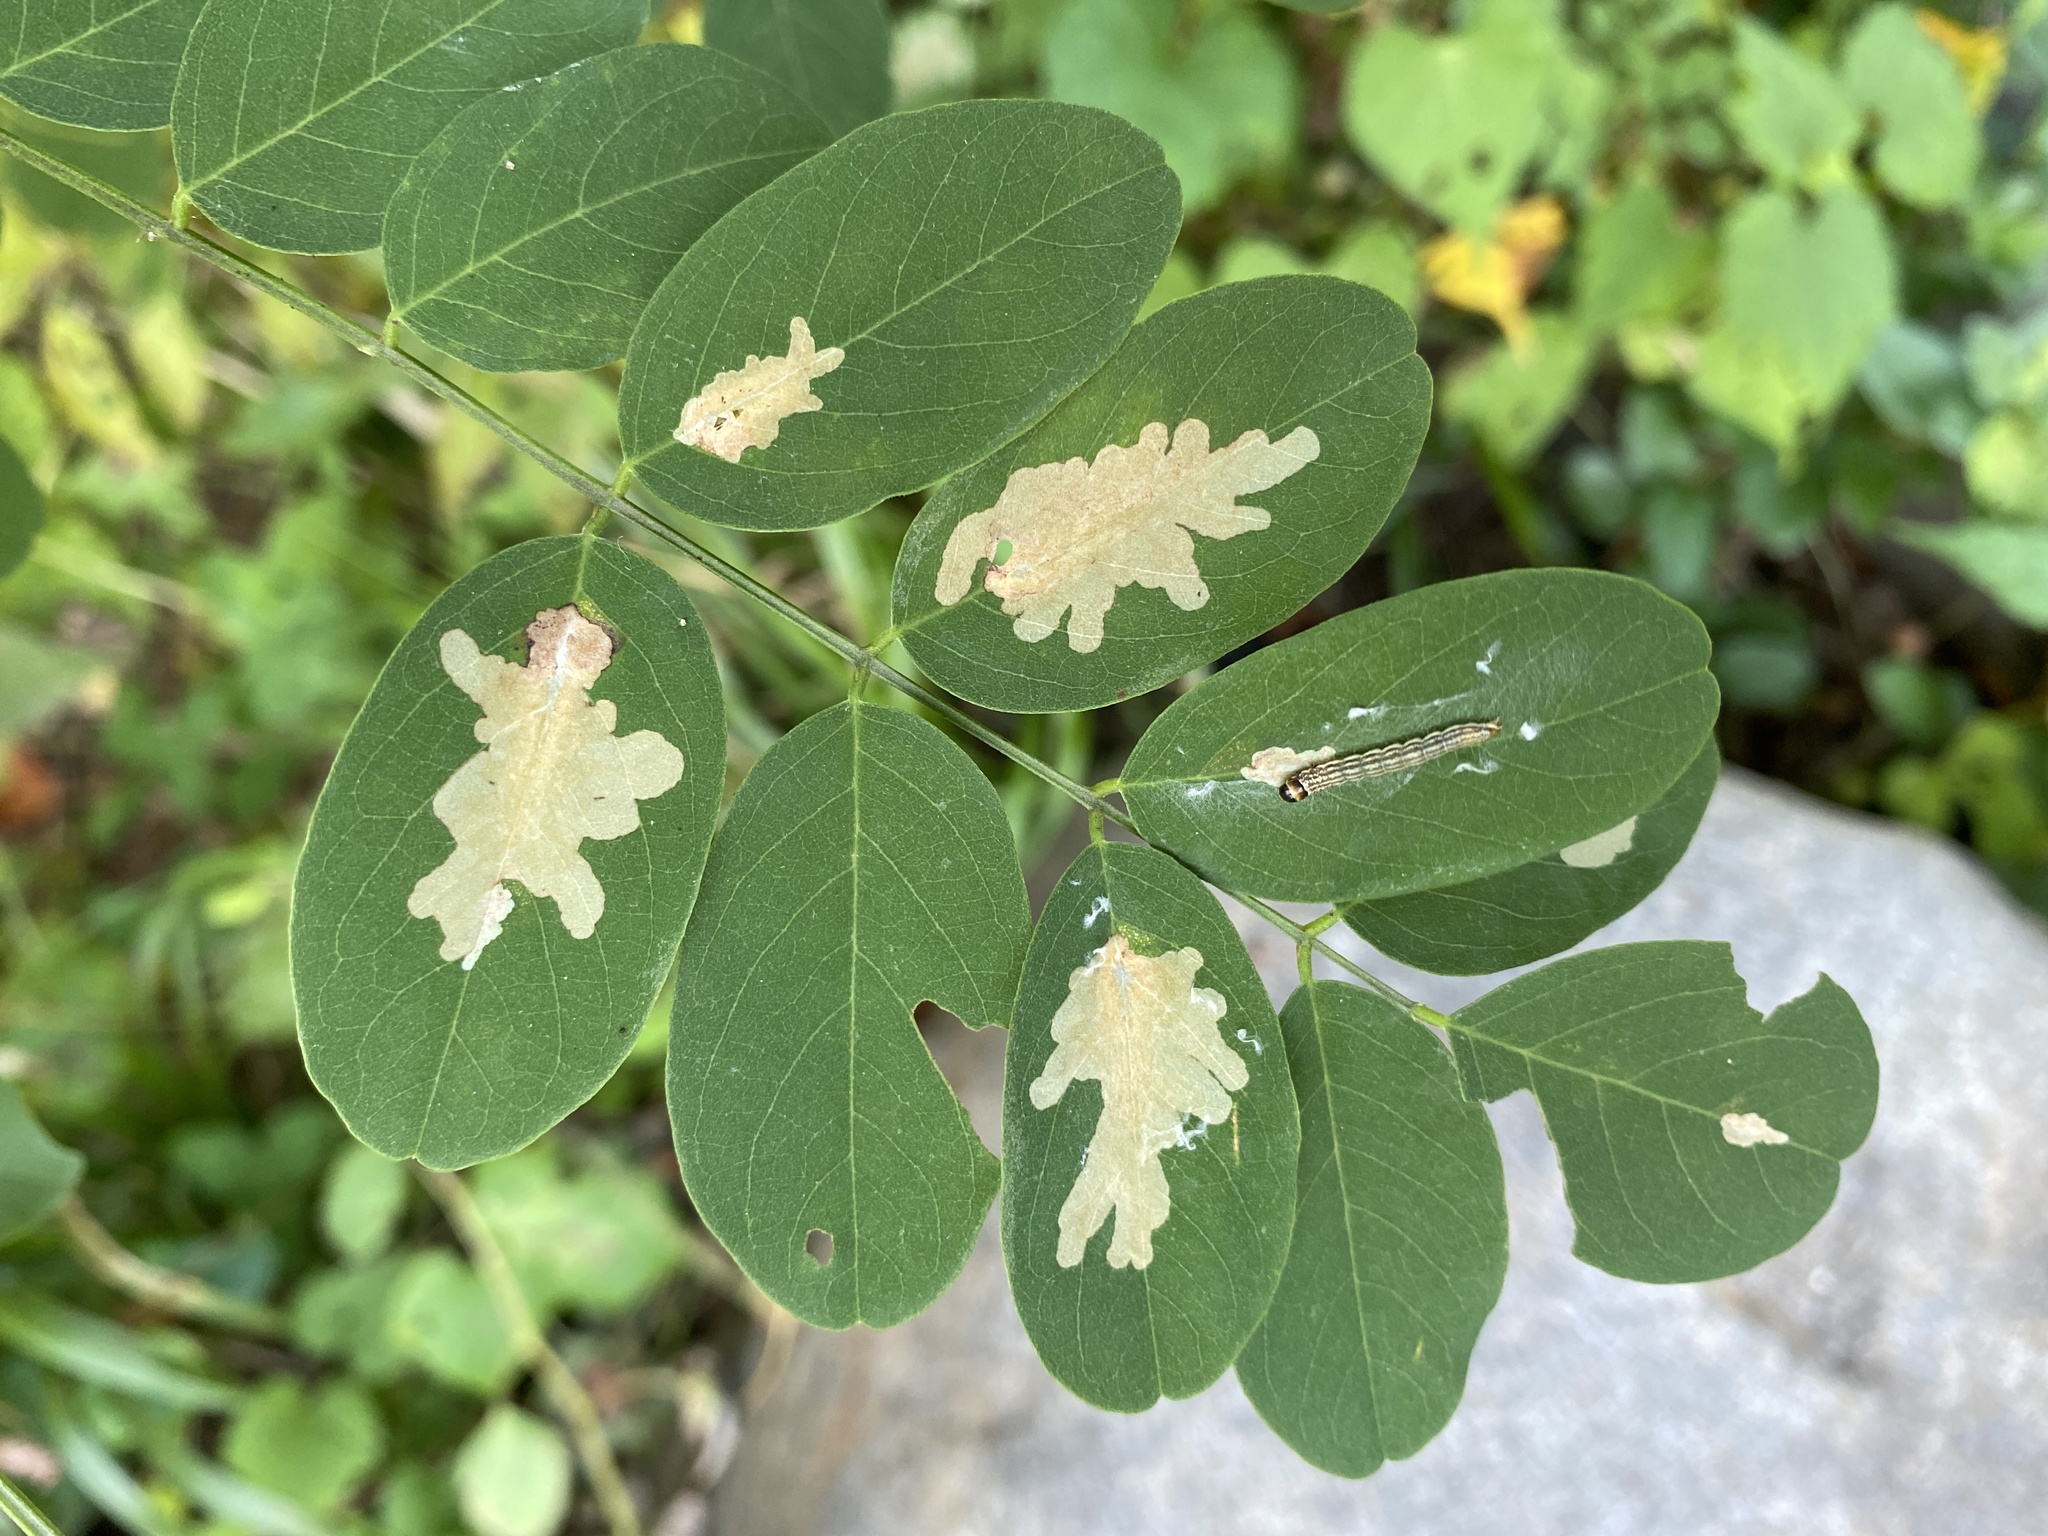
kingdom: Animalia
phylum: Arthropoda
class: Insecta
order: Lepidoptera
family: Gracillariidae
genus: Parectopa
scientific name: Parectopa robiniella
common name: Locust digitate leafminer
